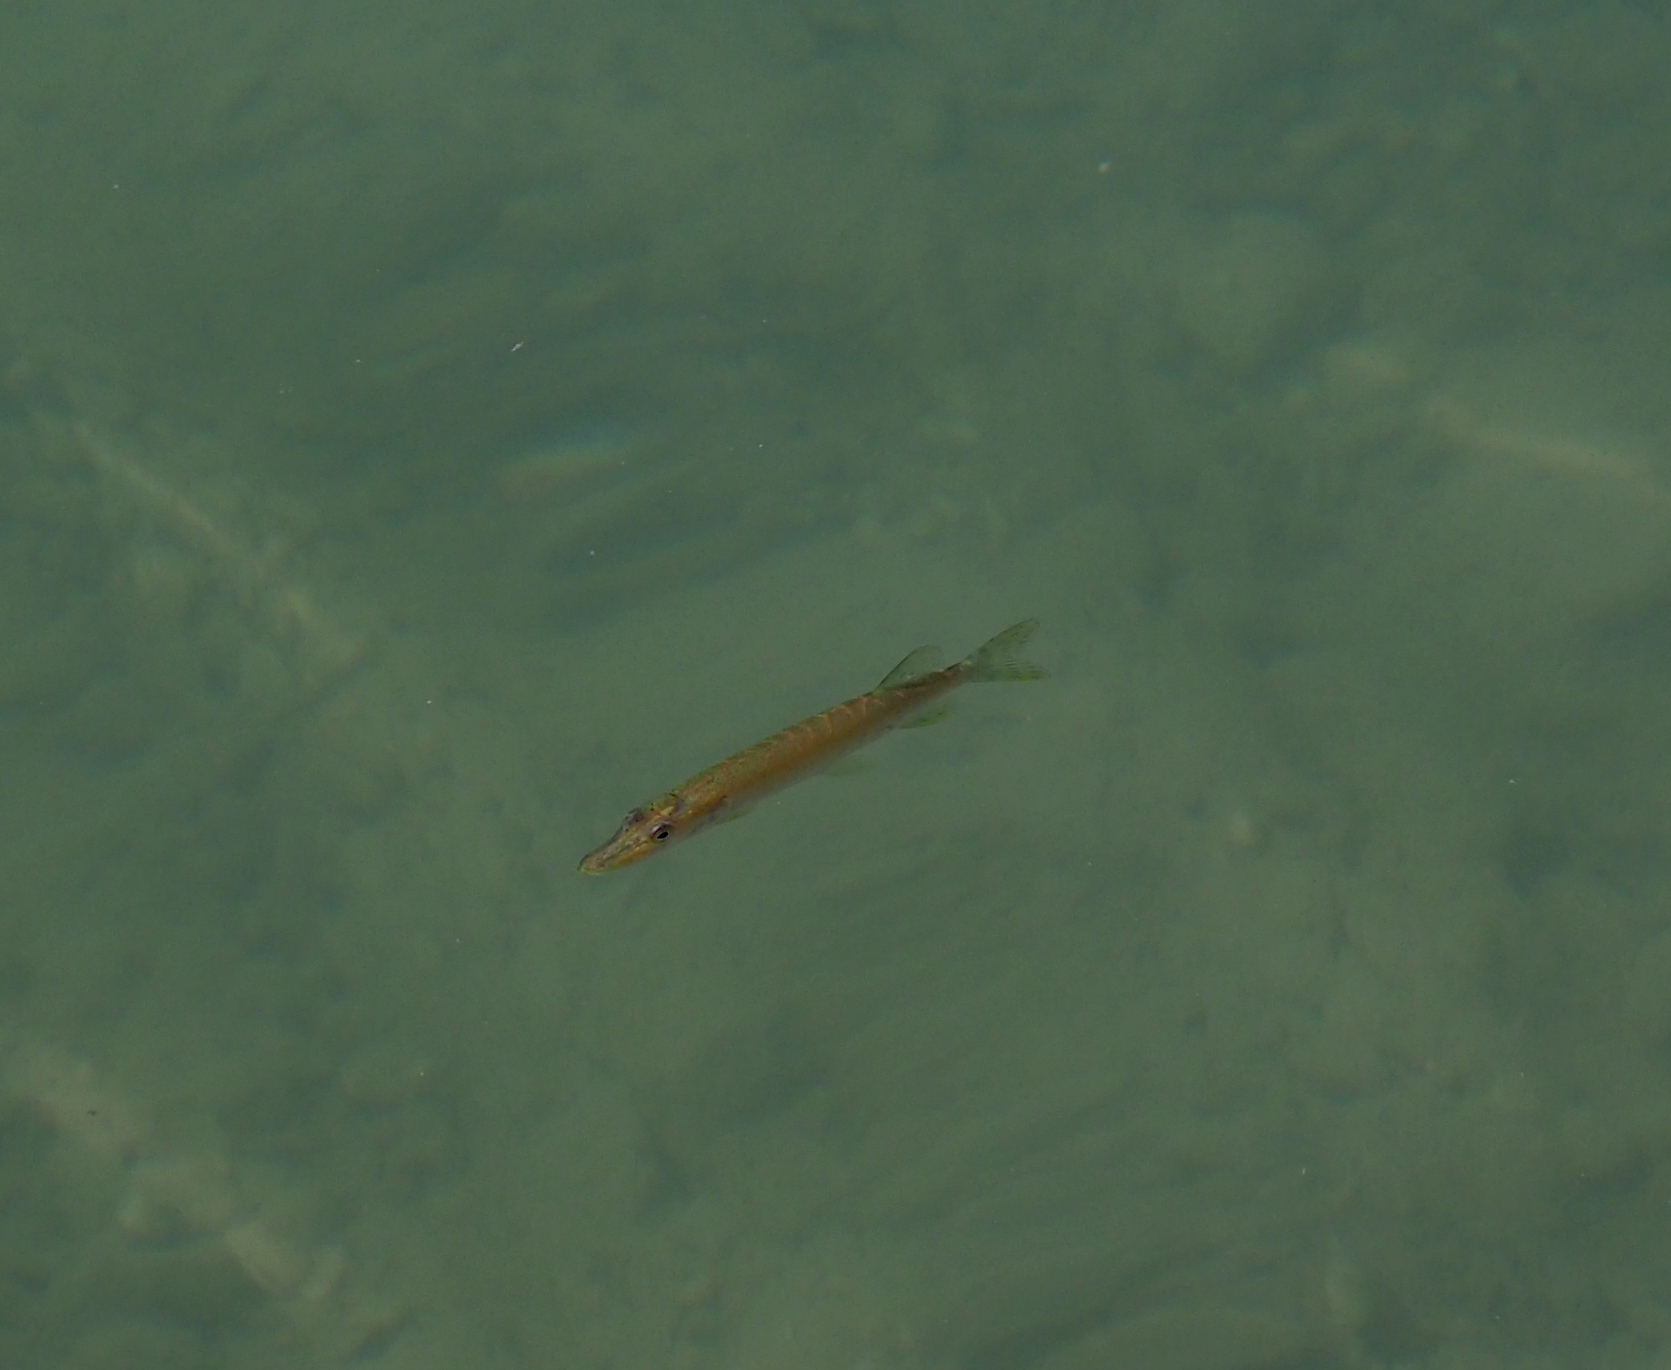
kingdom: Animalia
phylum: Chordata
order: Esociformes
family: Esocidae
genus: Esox
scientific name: Esox lucius
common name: Northern pike
